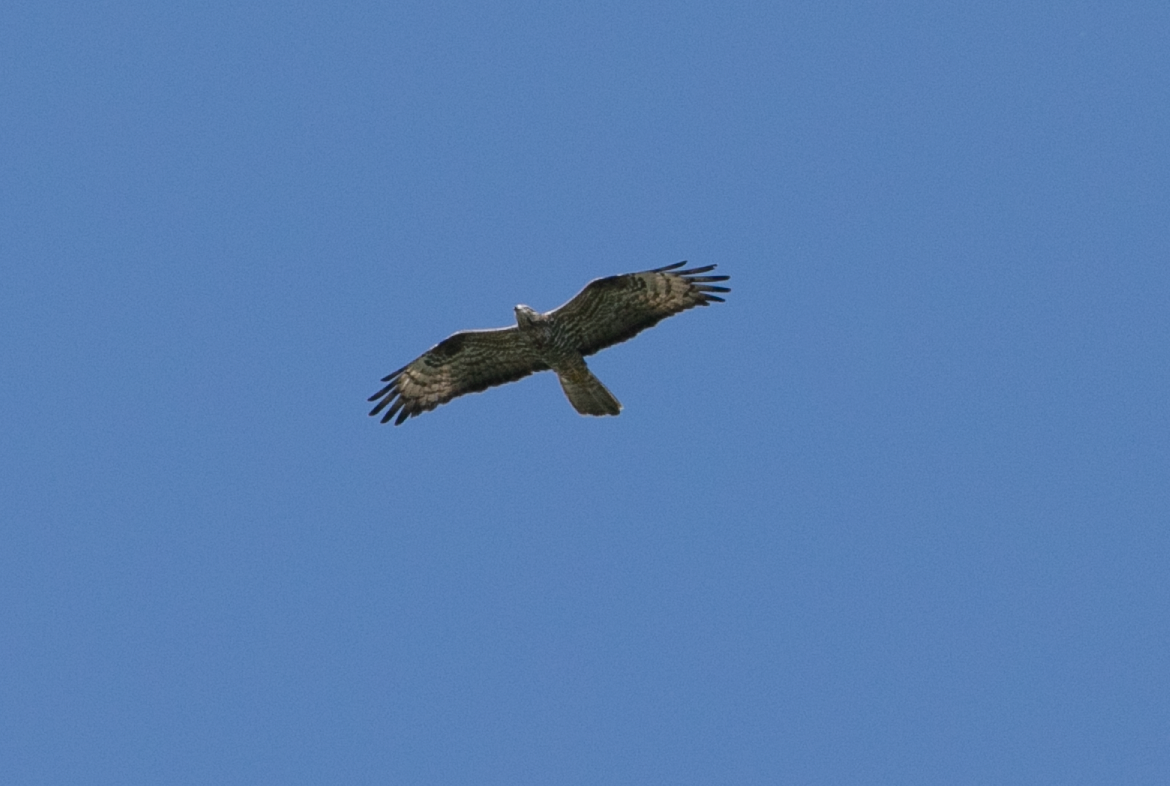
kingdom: Animalia
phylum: Chordata
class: Aves
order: Accipitriformes
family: Accipitridae
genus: Pernis
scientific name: Pernis apivorus
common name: European honey buzzard
